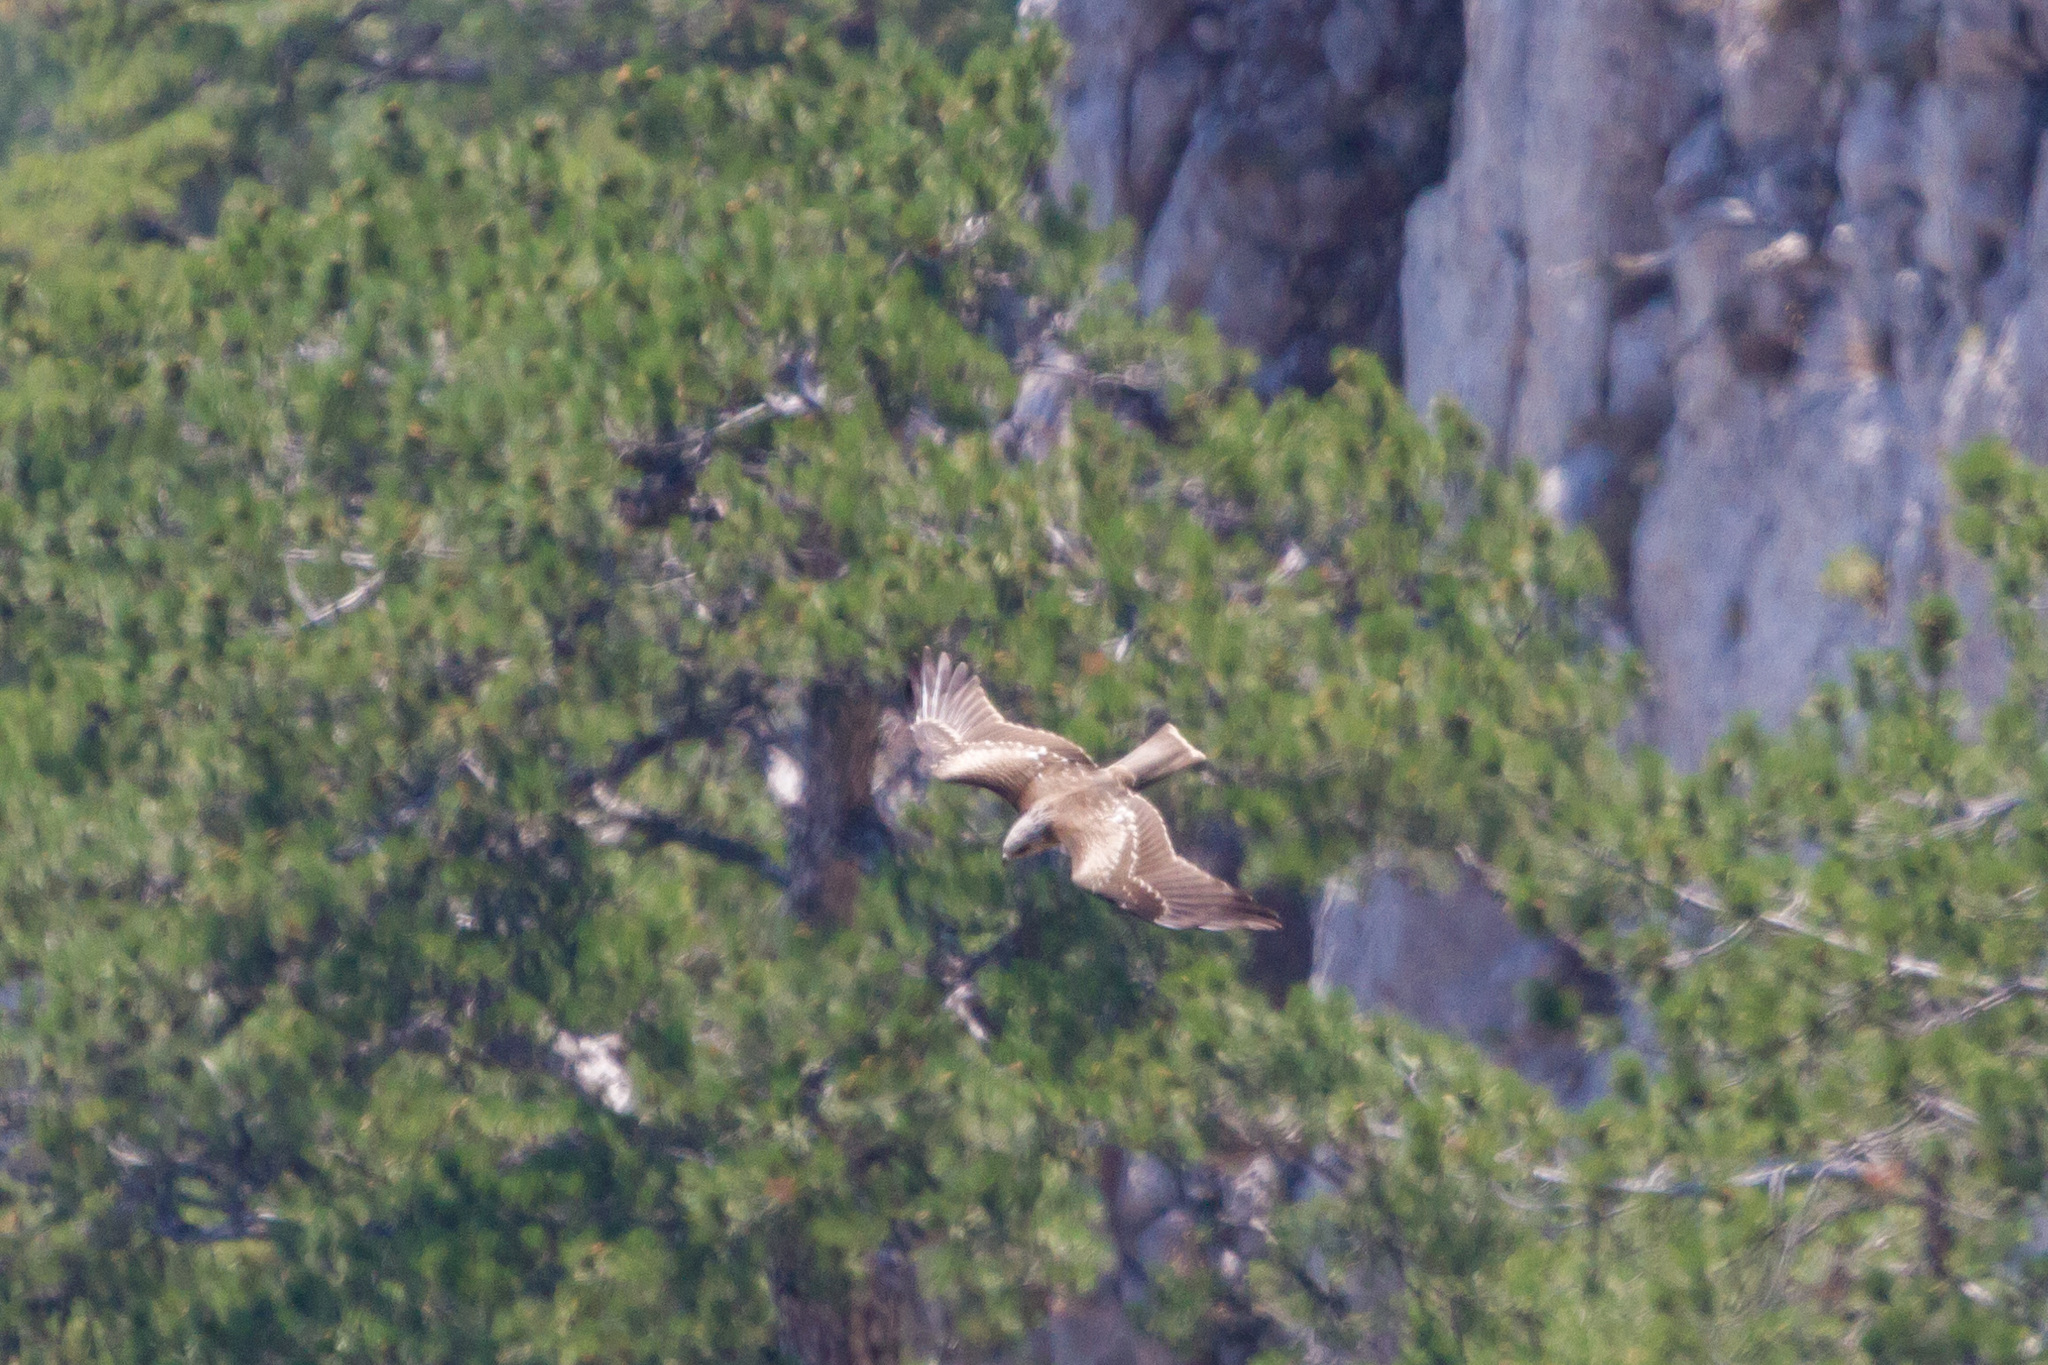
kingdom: Animalia
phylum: Chordata
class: Aves
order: Accipitriformes
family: Accipitridae
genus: Milvus
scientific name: Milvus migrans
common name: Black kite
